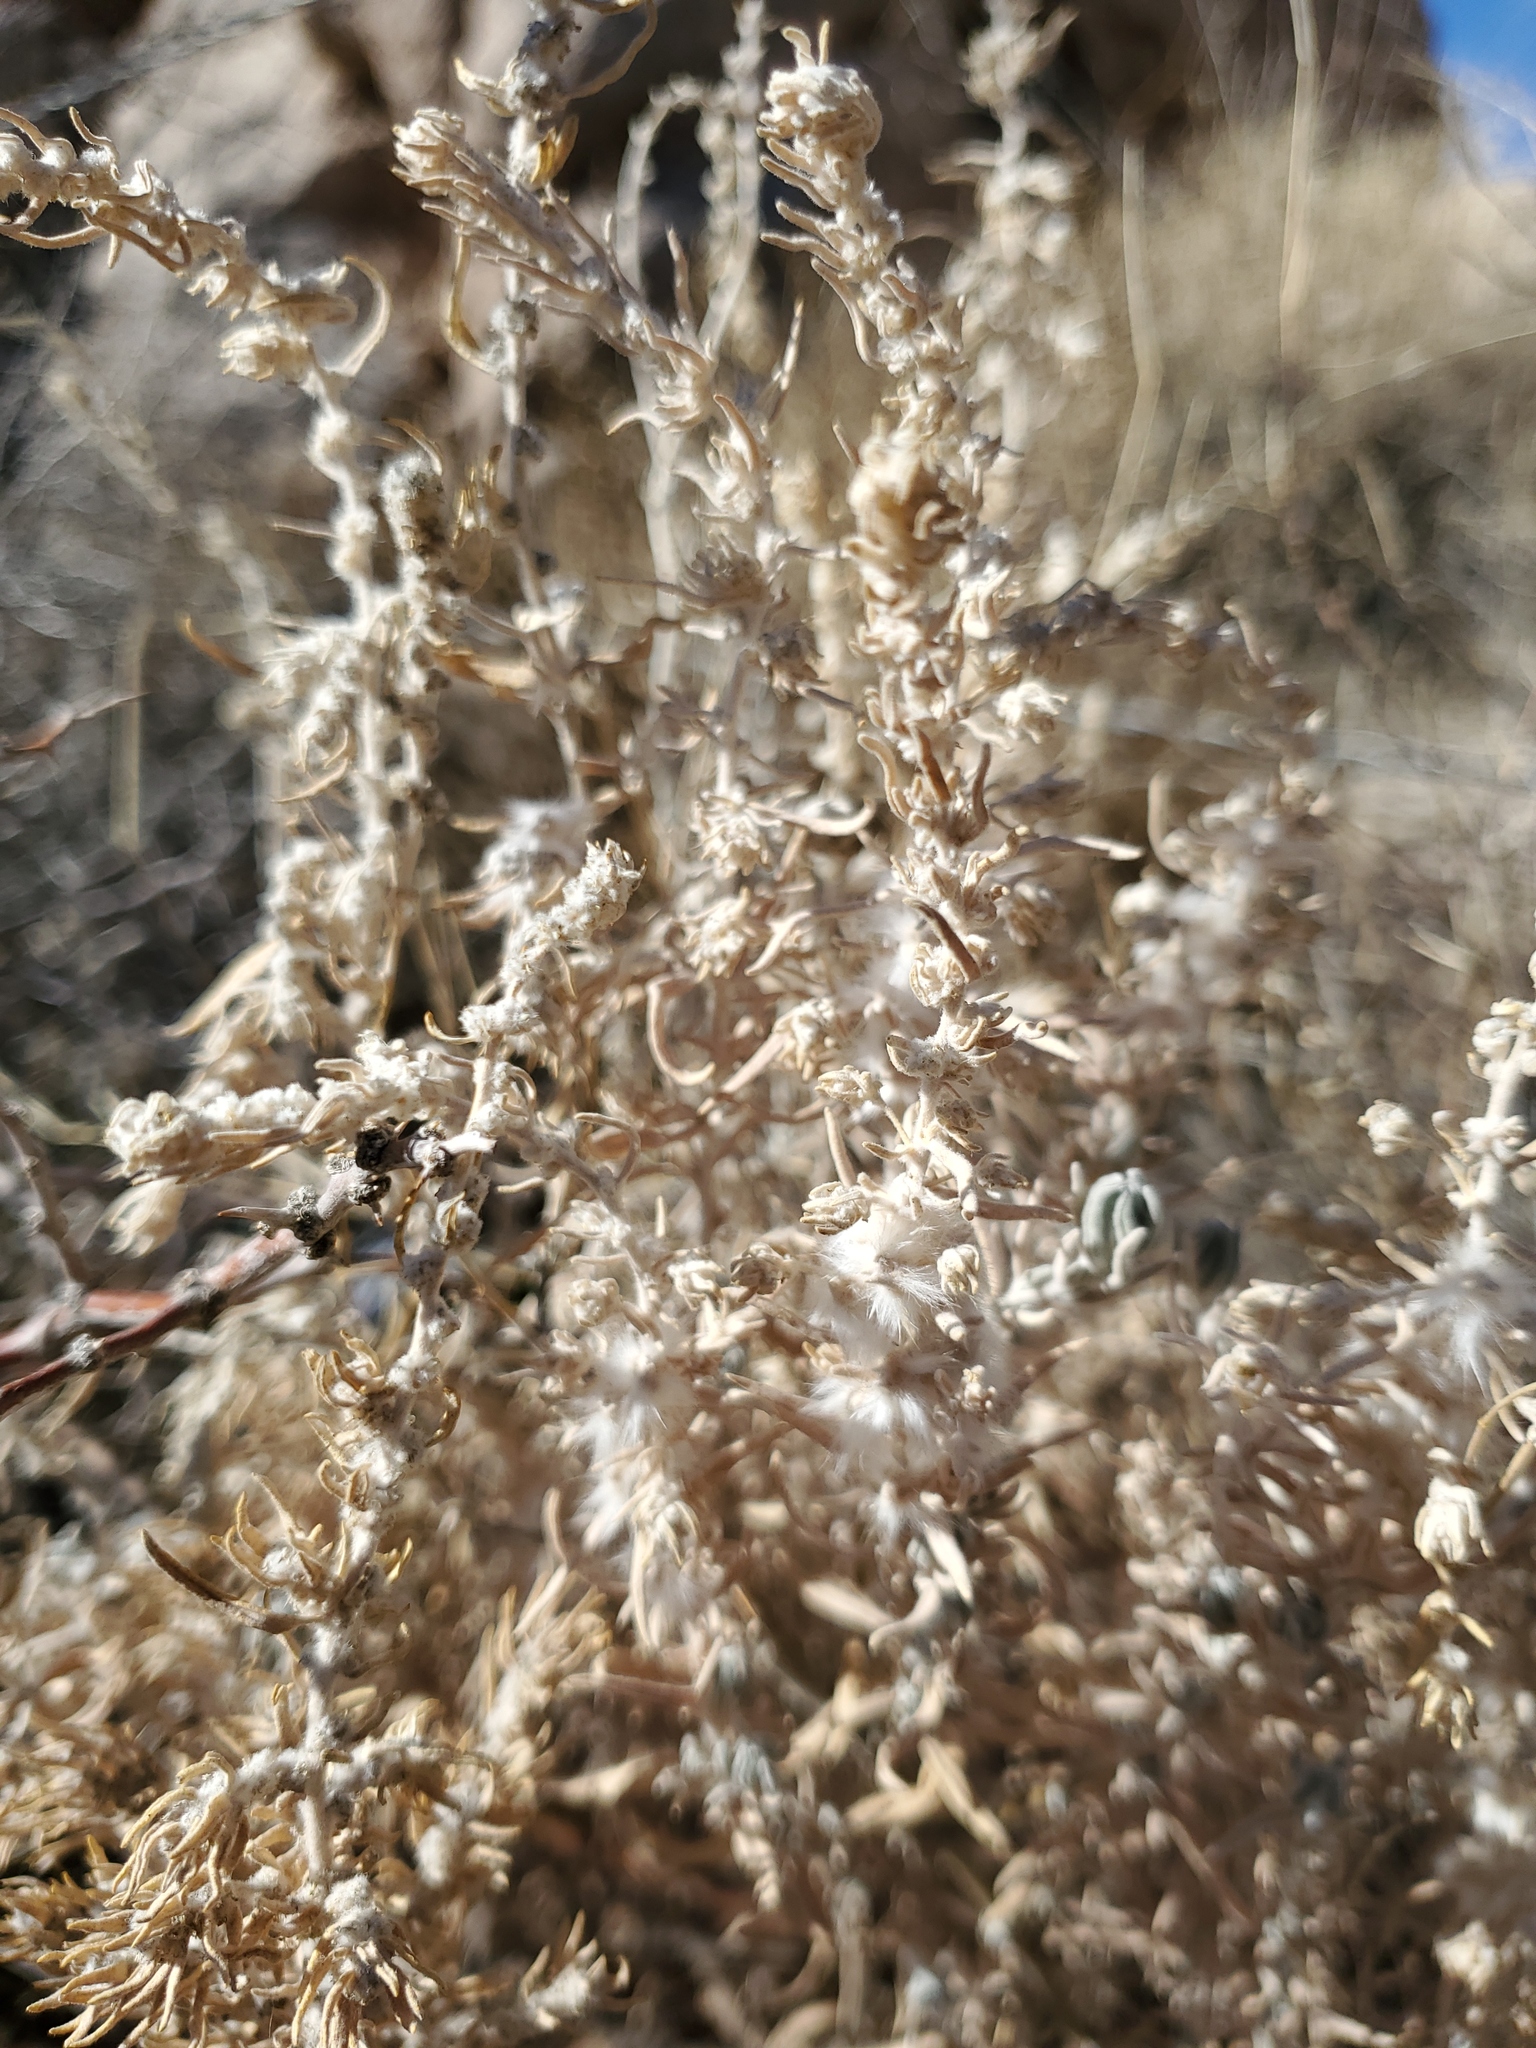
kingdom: Plantae
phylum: Tracheophyta
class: Magnoliopsida
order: Caryophyllales
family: Amaranthaceae
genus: Krascheninnikovia
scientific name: Krascheninnikovia lanata
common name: Winterfat
